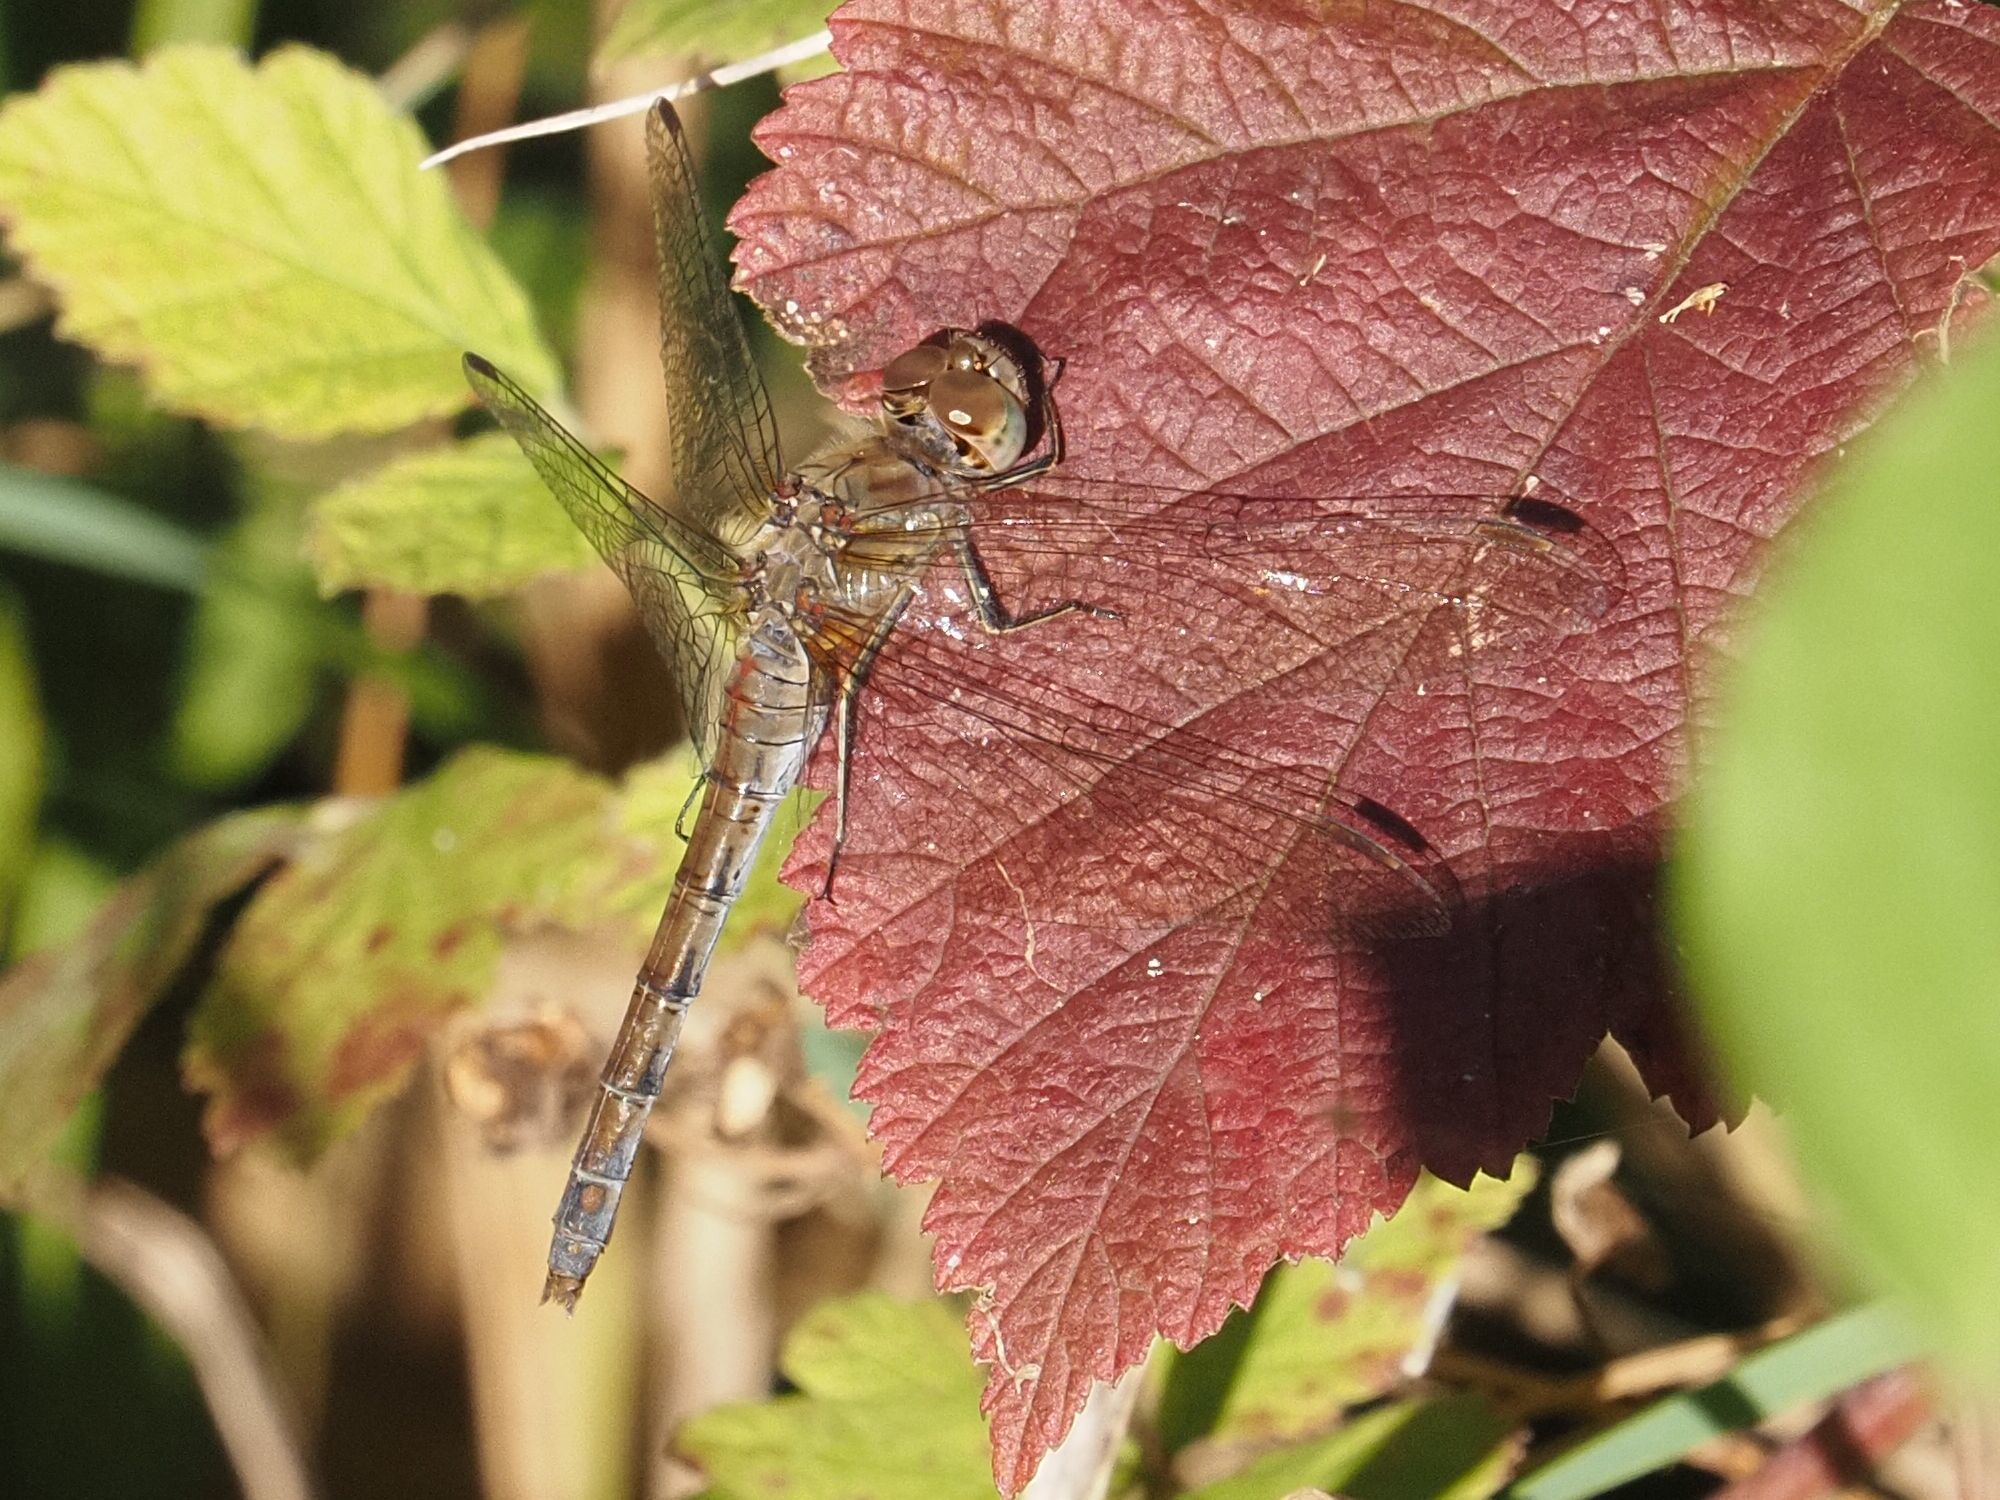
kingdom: Animalia
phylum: Arthropoda
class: Insecta
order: Odonata
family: Libellulidae
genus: Sympetrum
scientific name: Sympetrum striolatum
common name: Common darter
